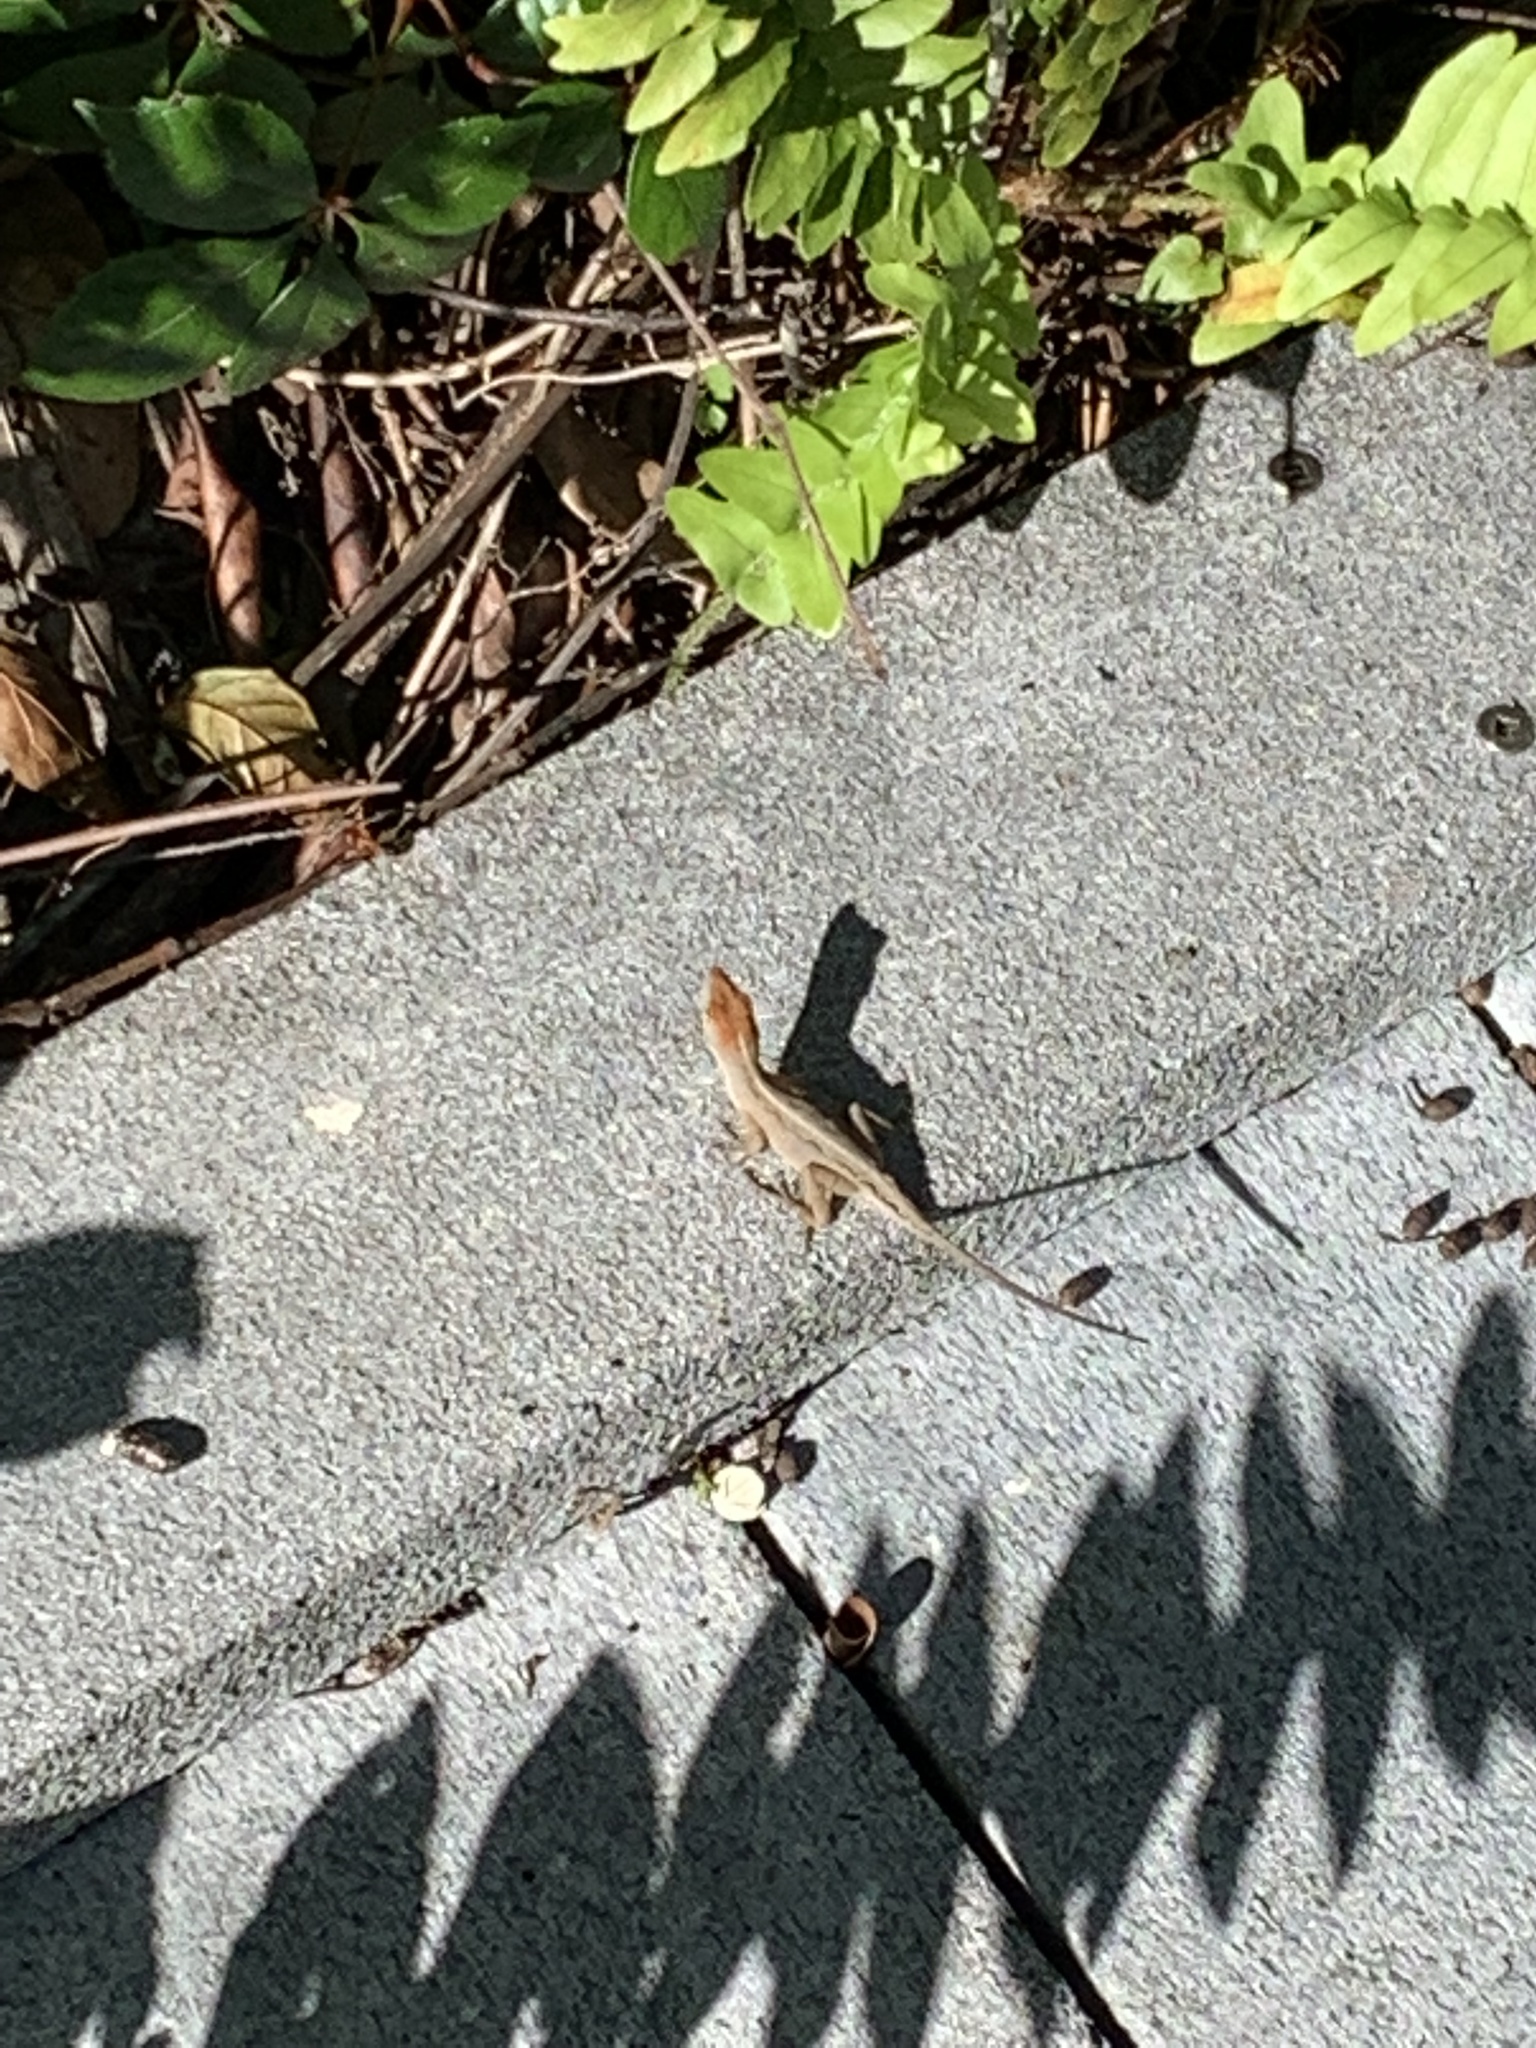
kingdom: Animalia
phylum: Chordata
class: Squamata
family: Dactyloidae
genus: Anolis
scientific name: Anolis sagrei
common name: Brown anole
